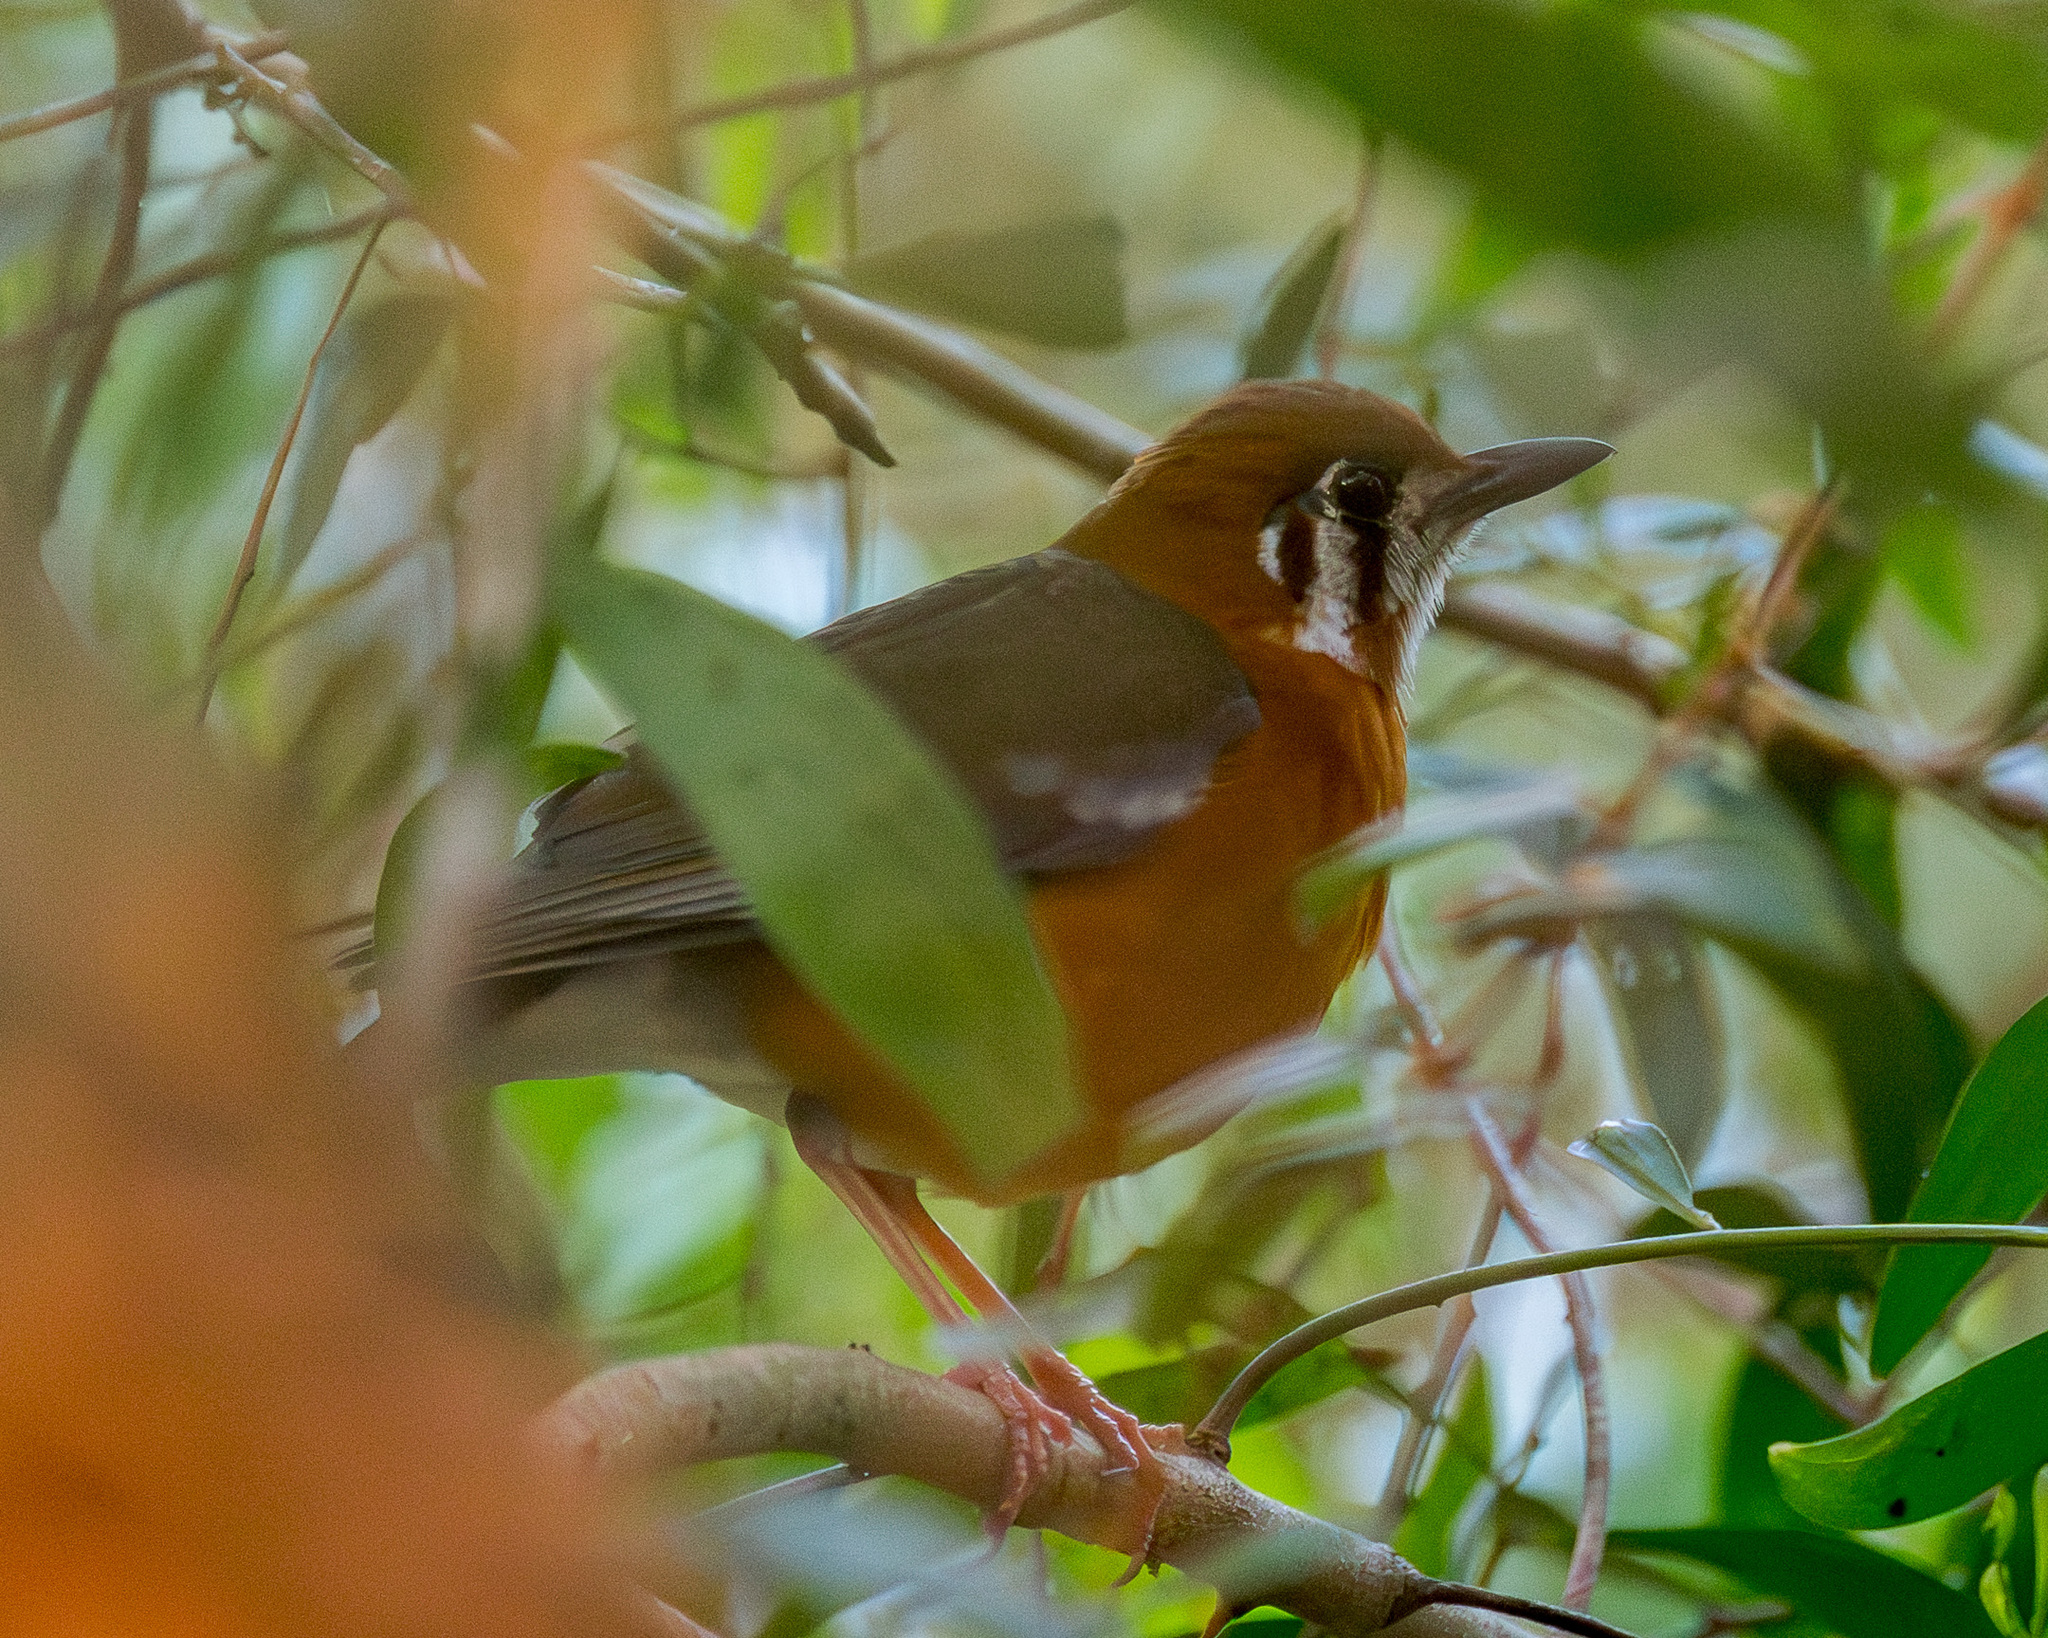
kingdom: Animalia
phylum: Chordata
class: Aves
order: Passeriformes
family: Turdidae
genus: Geokichla
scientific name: Geokichla citrina
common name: Orange-headed thrush
